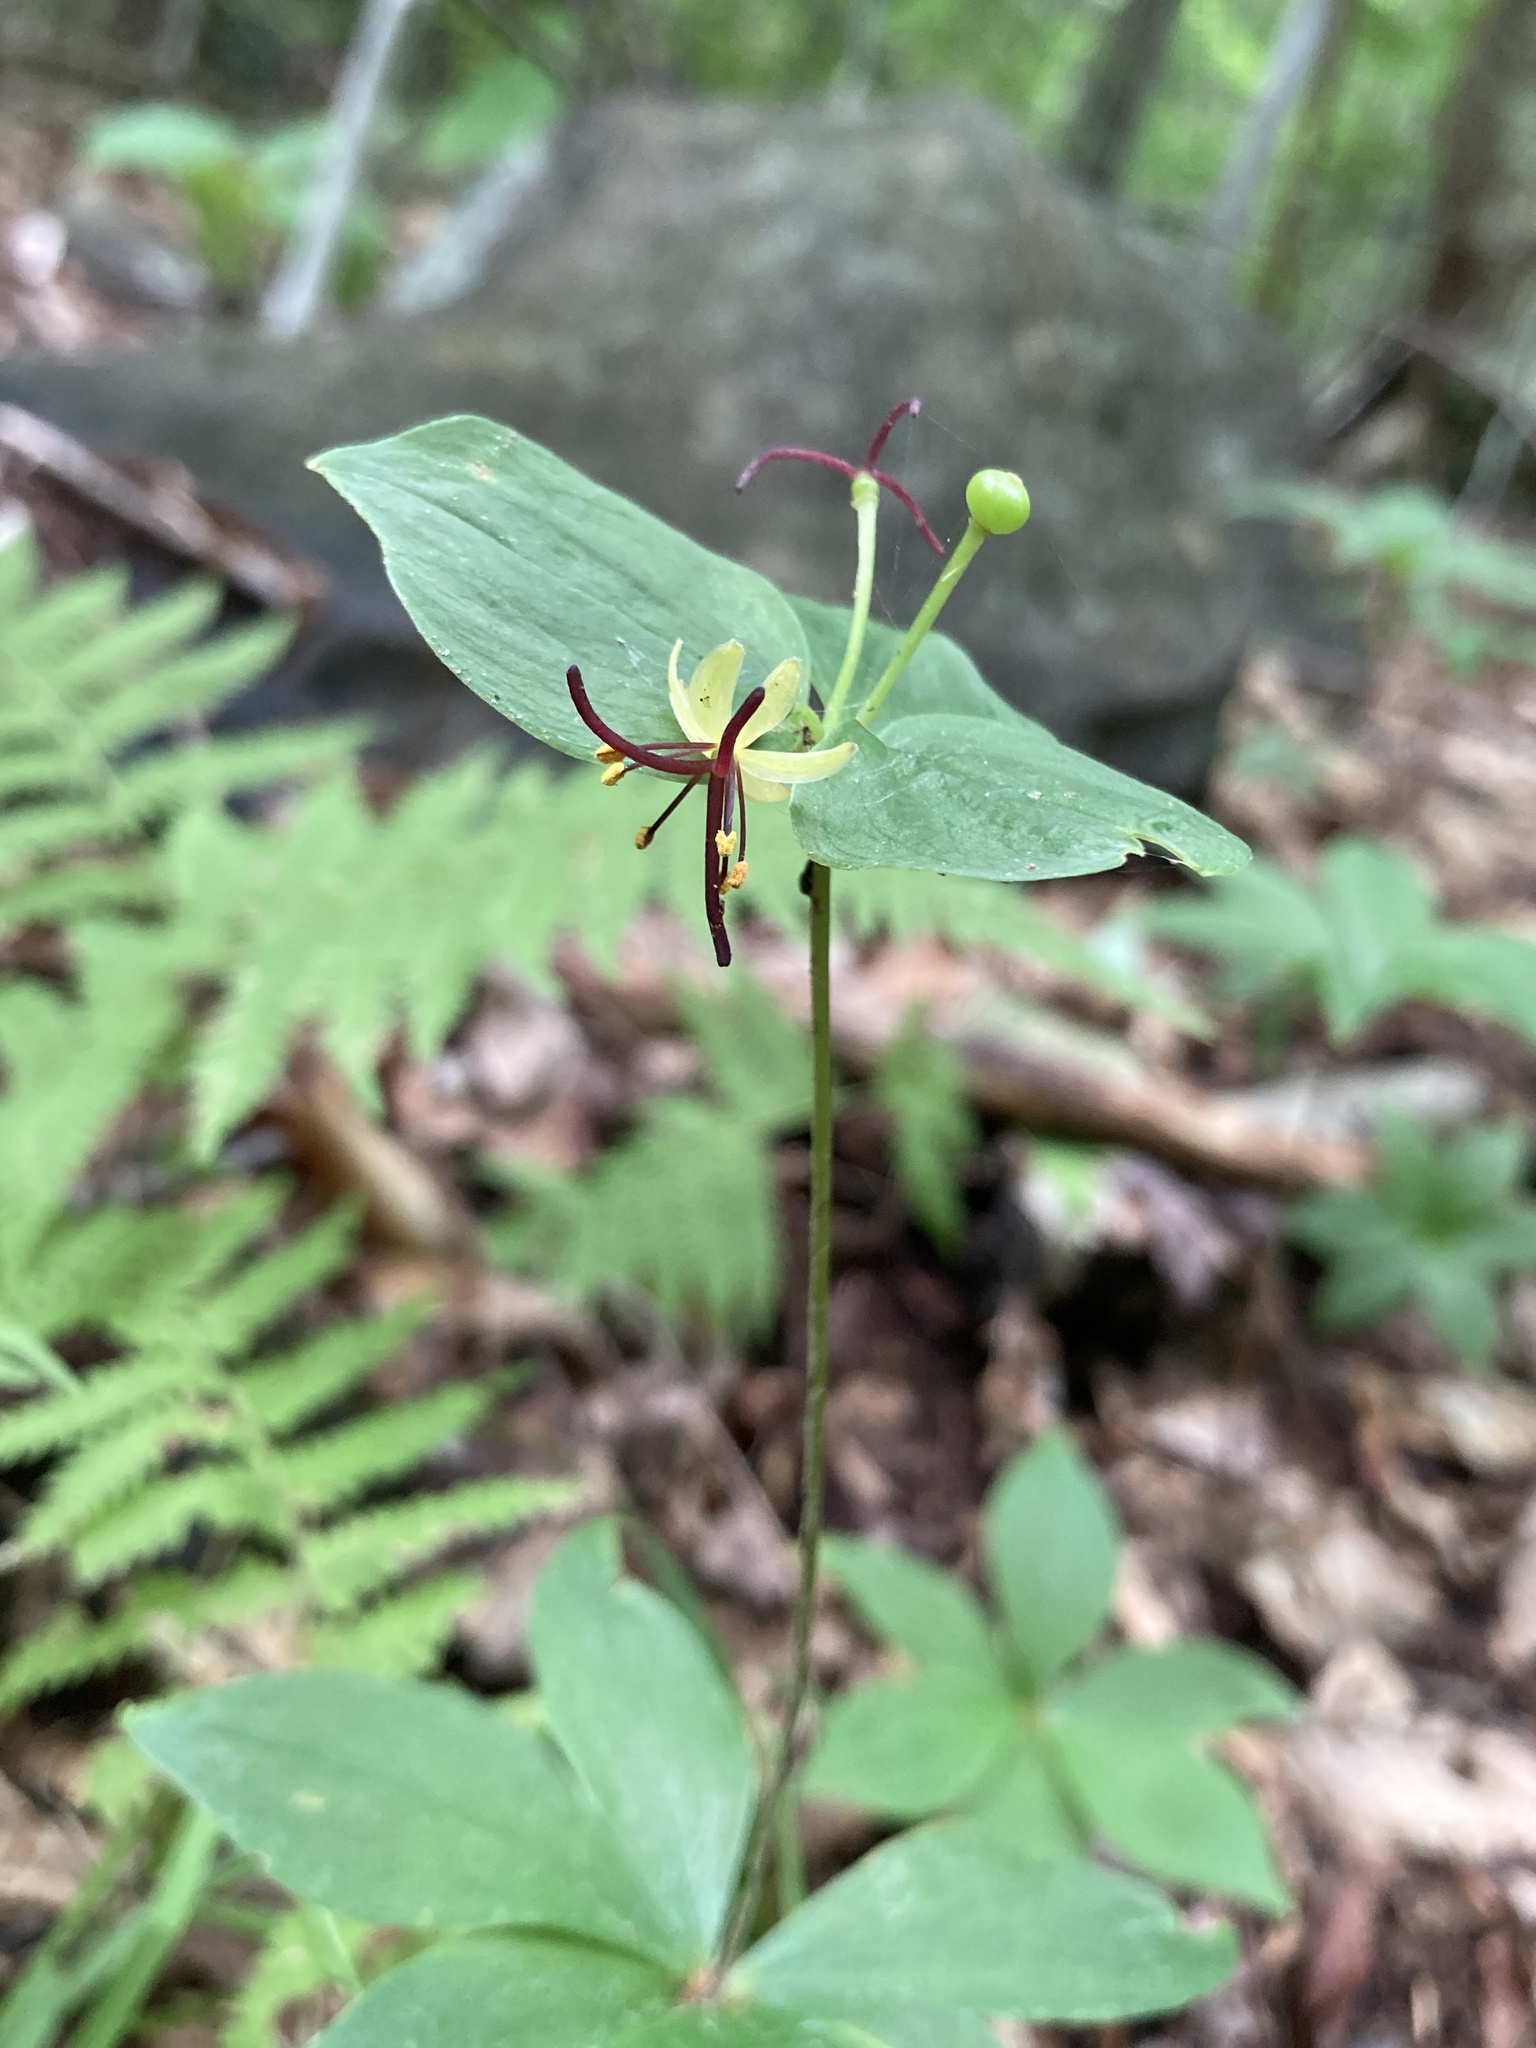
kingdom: Plantae
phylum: Tracheophyta
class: Liliopsida
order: Liliales
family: Liliaceae
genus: Medeola
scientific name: Medeola virginiana
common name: Indian cucumber-root
